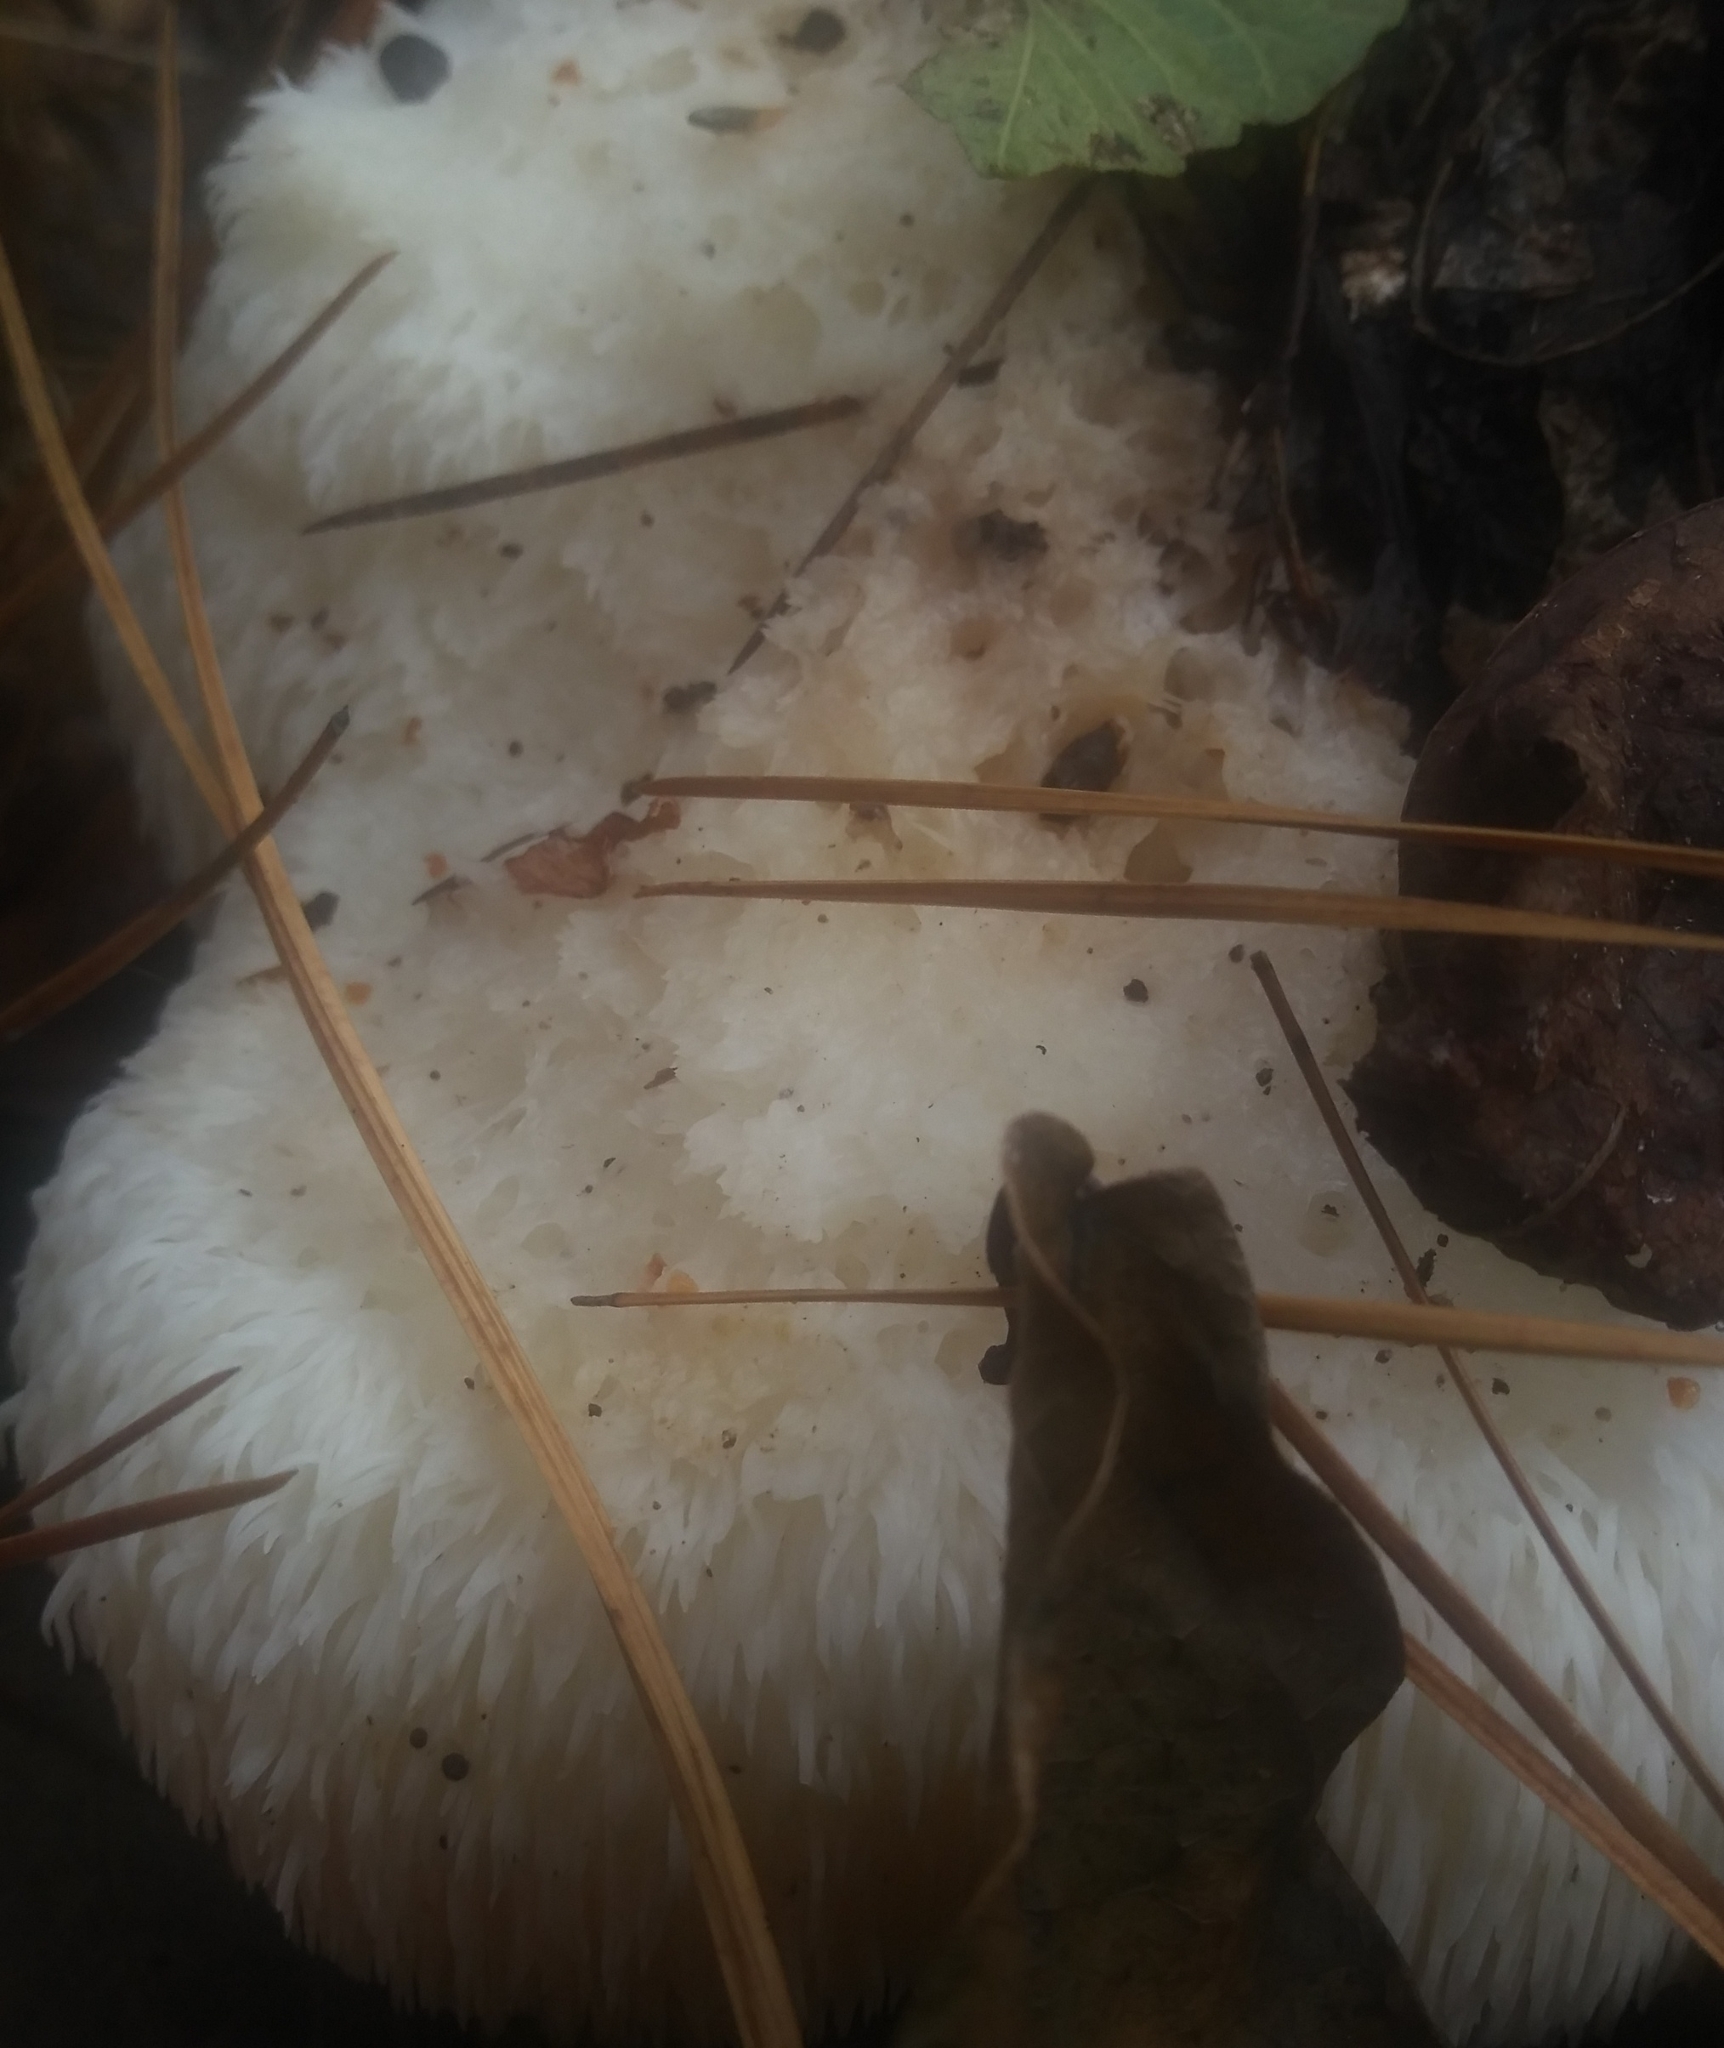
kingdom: Fungi
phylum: Basidiomycota
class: Agaricomycetes
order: Russulales
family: Hericiaceae
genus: Hericium
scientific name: Hericium erinaceus
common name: Bearded tooth
